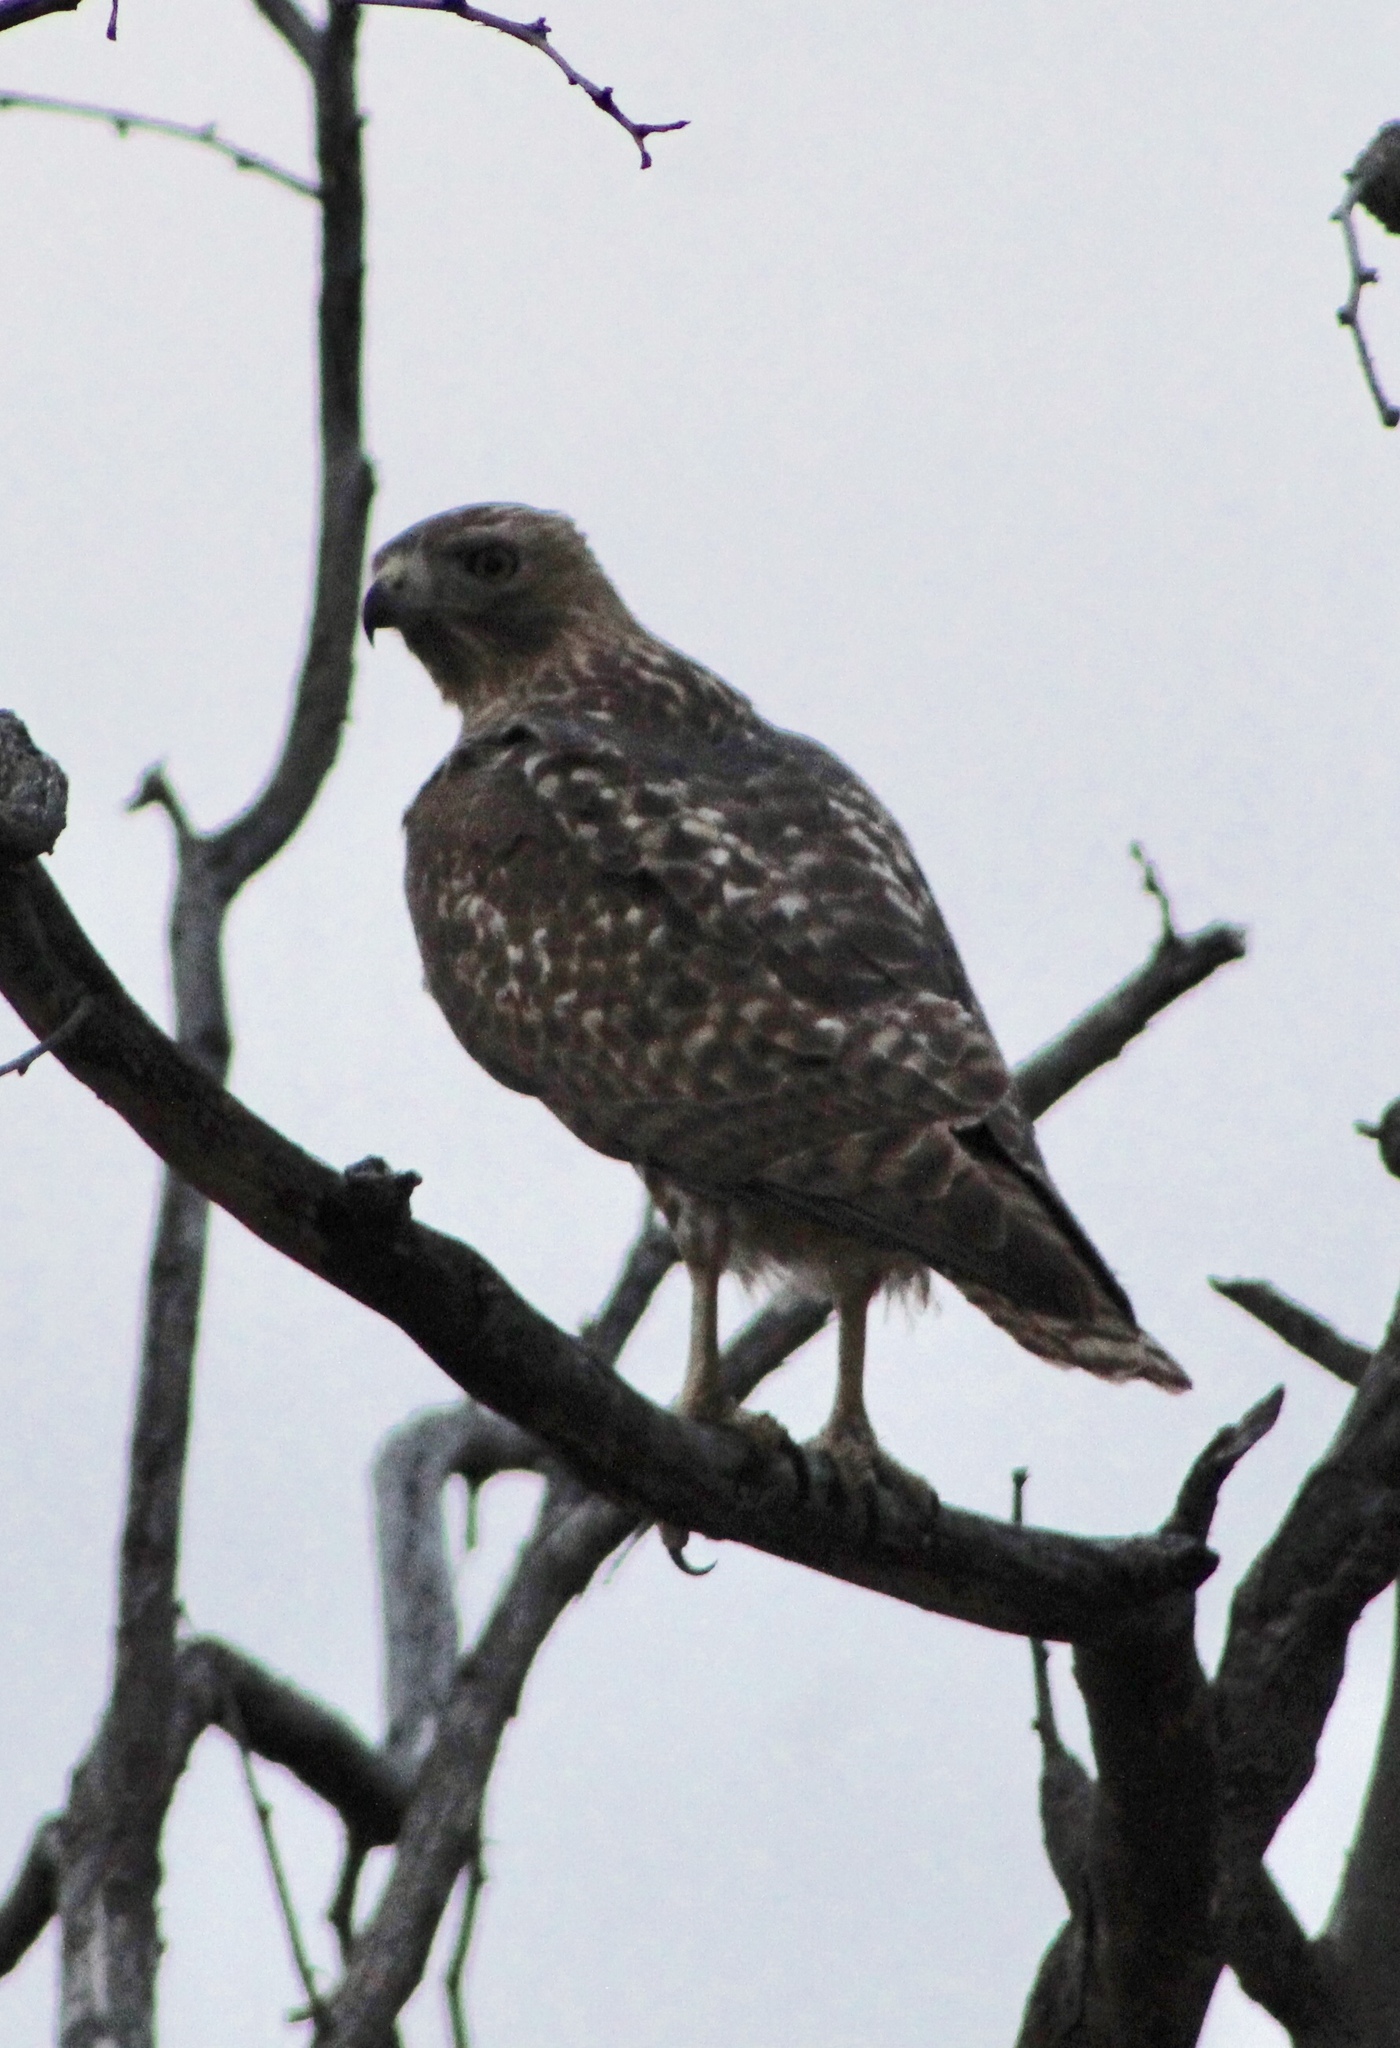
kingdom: Animalia
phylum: Chordata
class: Aves
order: Accipitriformes
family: Accipitridae
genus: Buteo
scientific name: Buteo jamaicensis
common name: Red-tailed hawk
